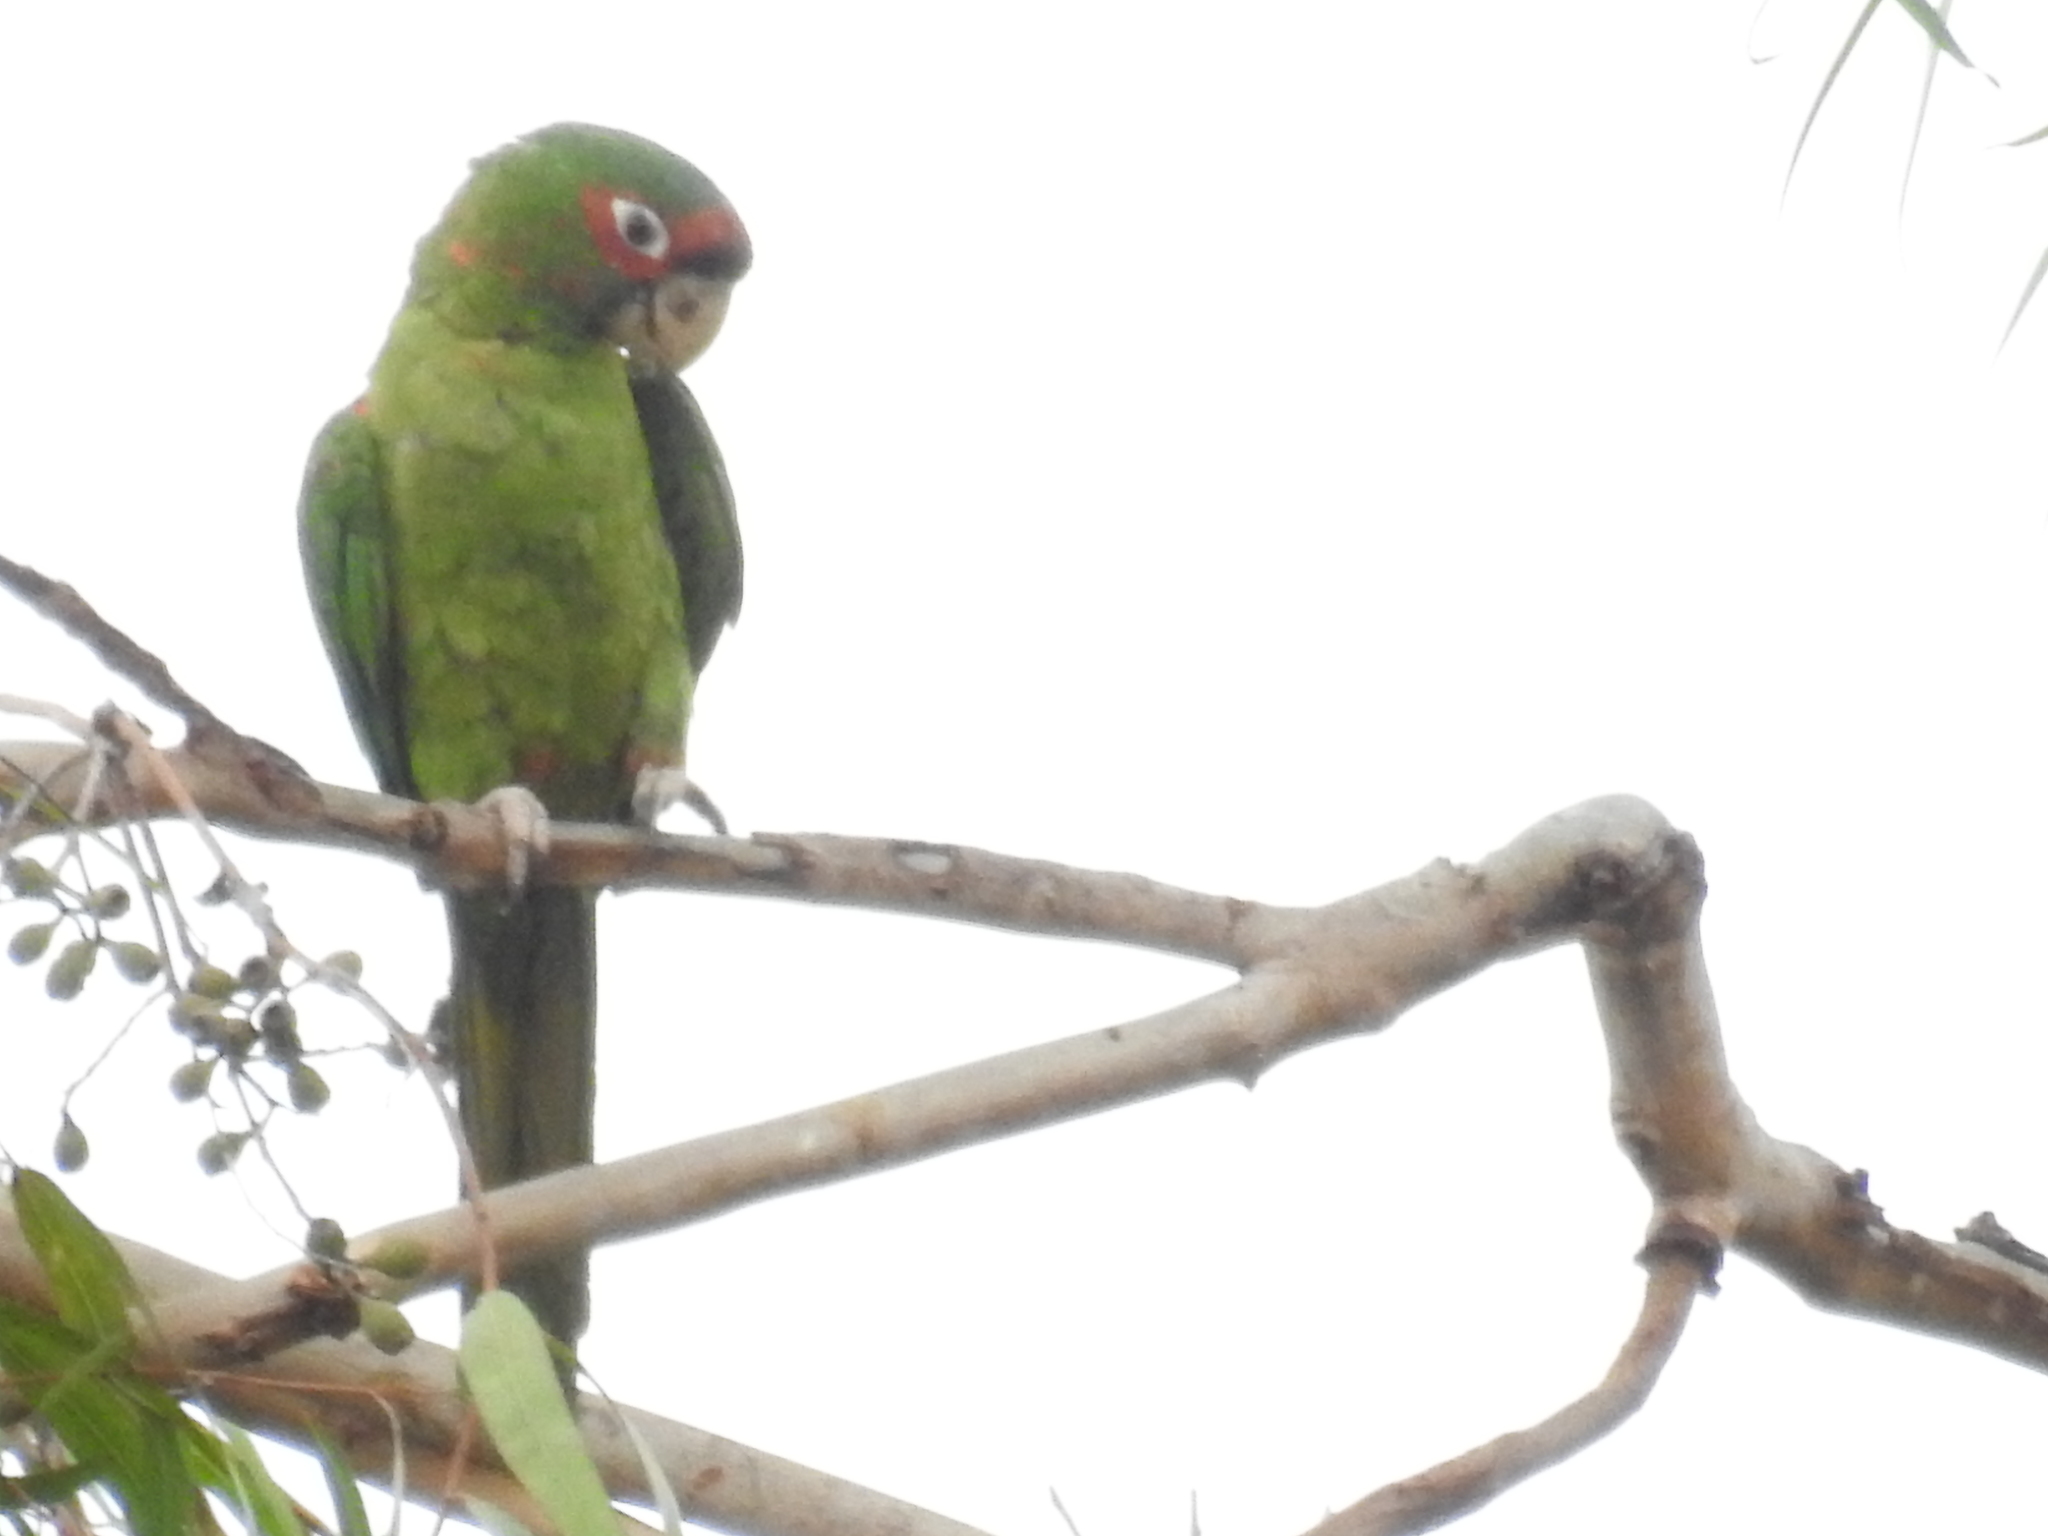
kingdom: Animalia
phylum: Chordata
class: Aves
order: Psittaciformes
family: Psittacidae
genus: Aratinga
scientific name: Aratinga mitrata
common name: Mitred parakeet
